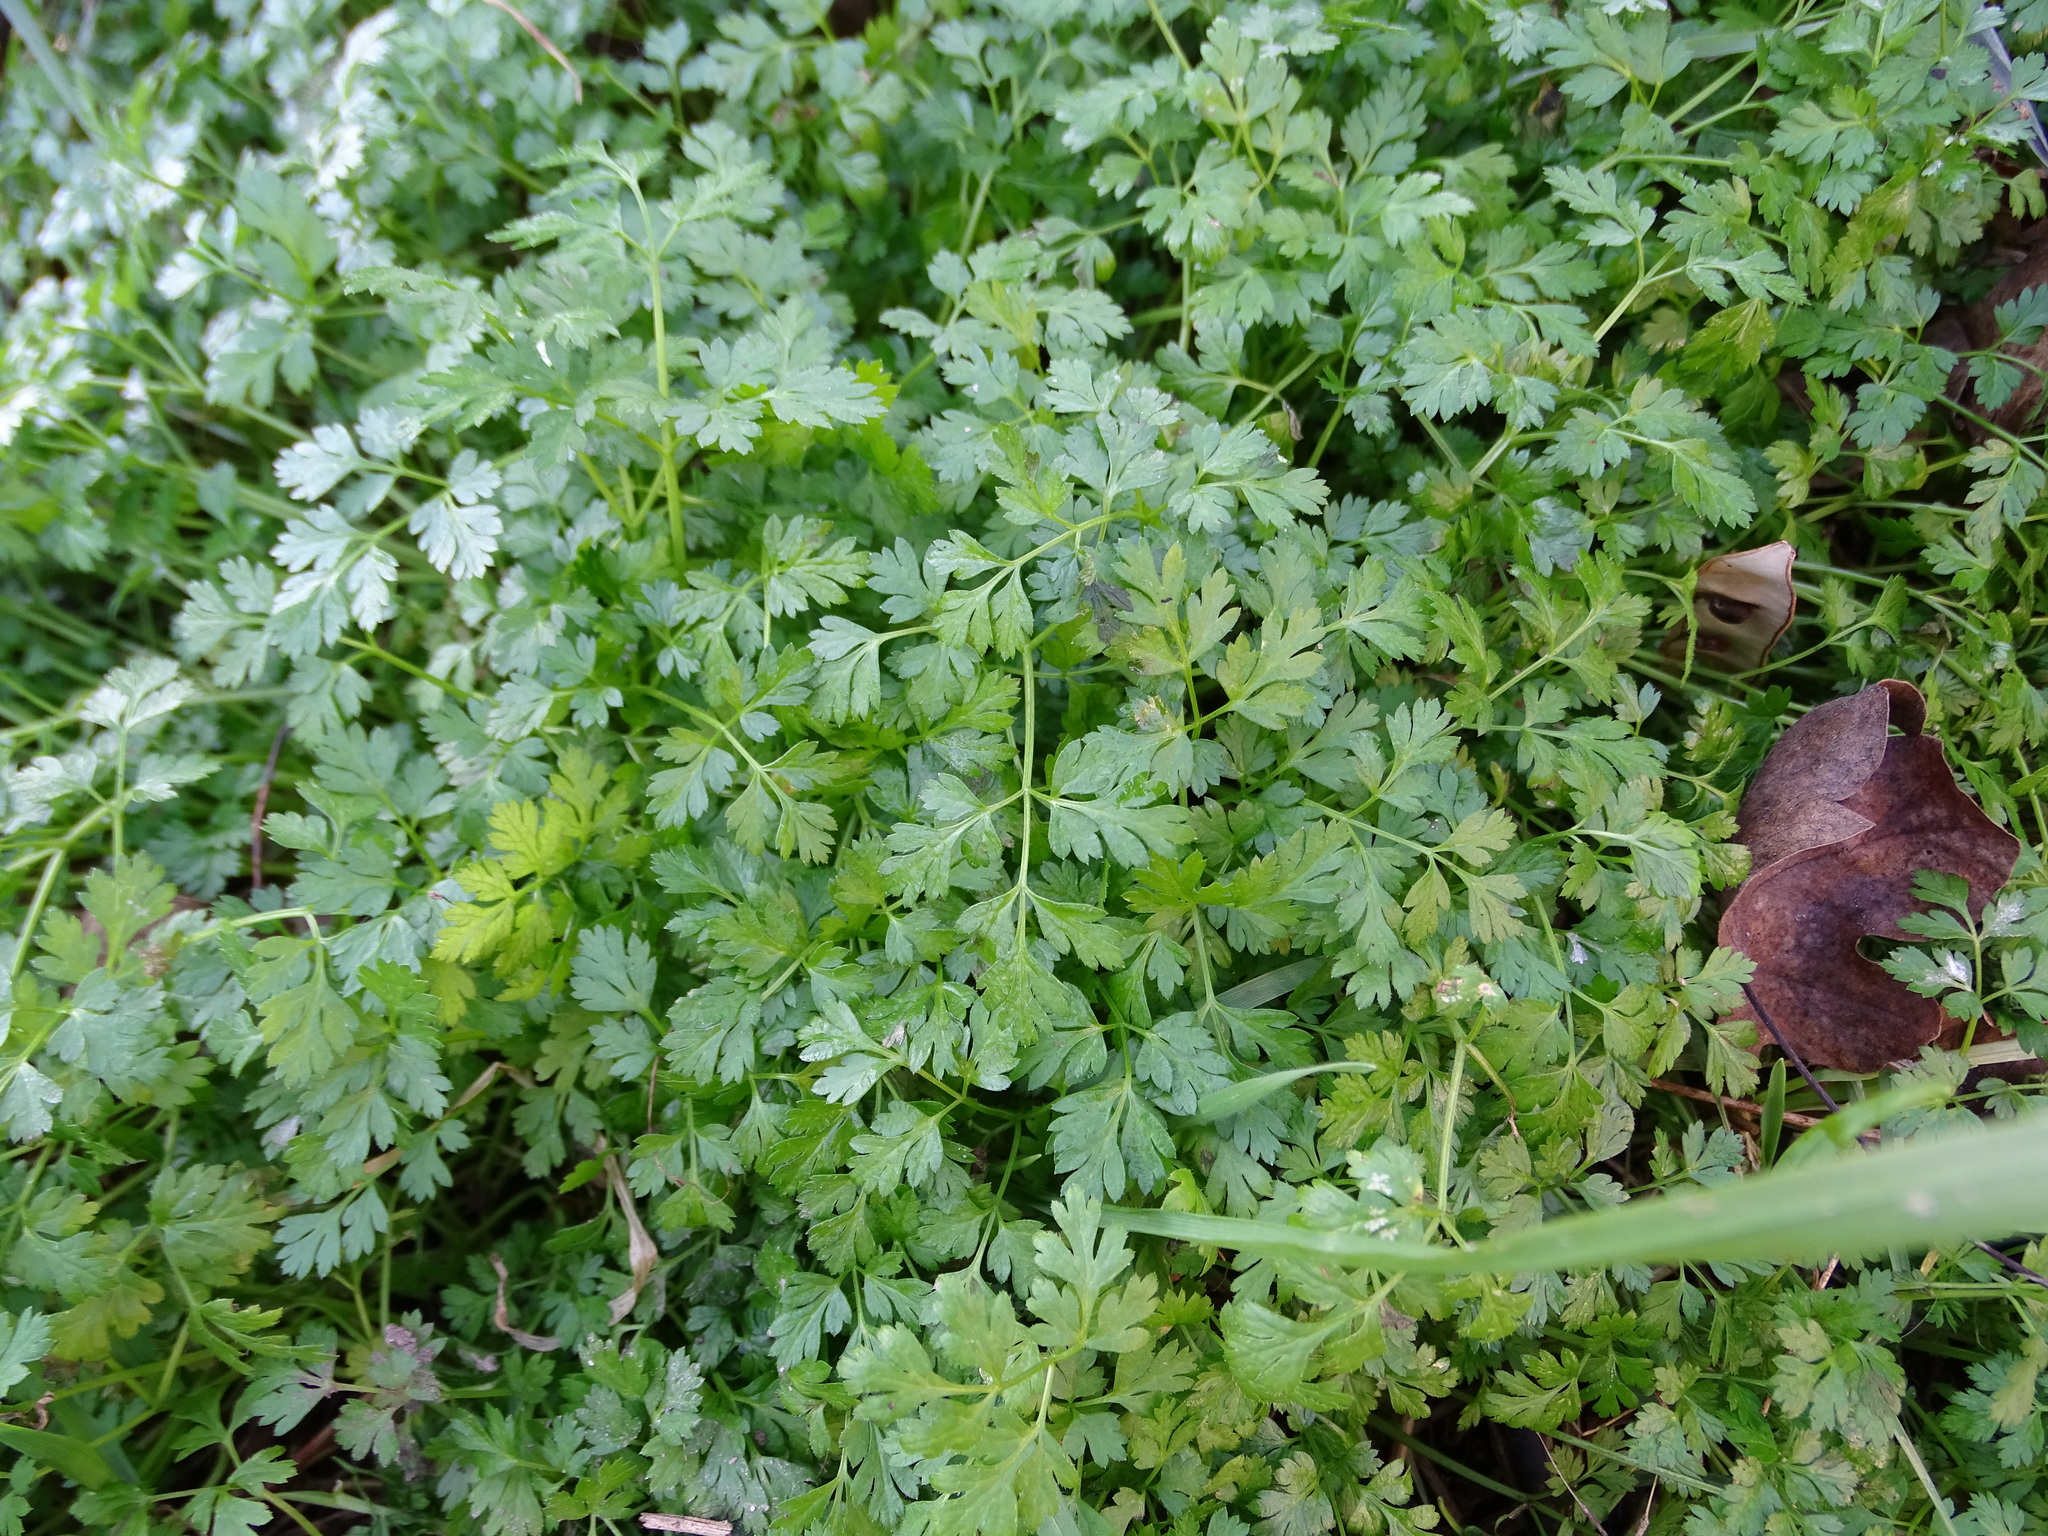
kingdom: Plantae
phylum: Tracheophyta
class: Magnoliopsida
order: Apiales
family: Apiaceae
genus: Anthriscus
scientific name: Anthriscus cerefolium
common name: Garden chervil
